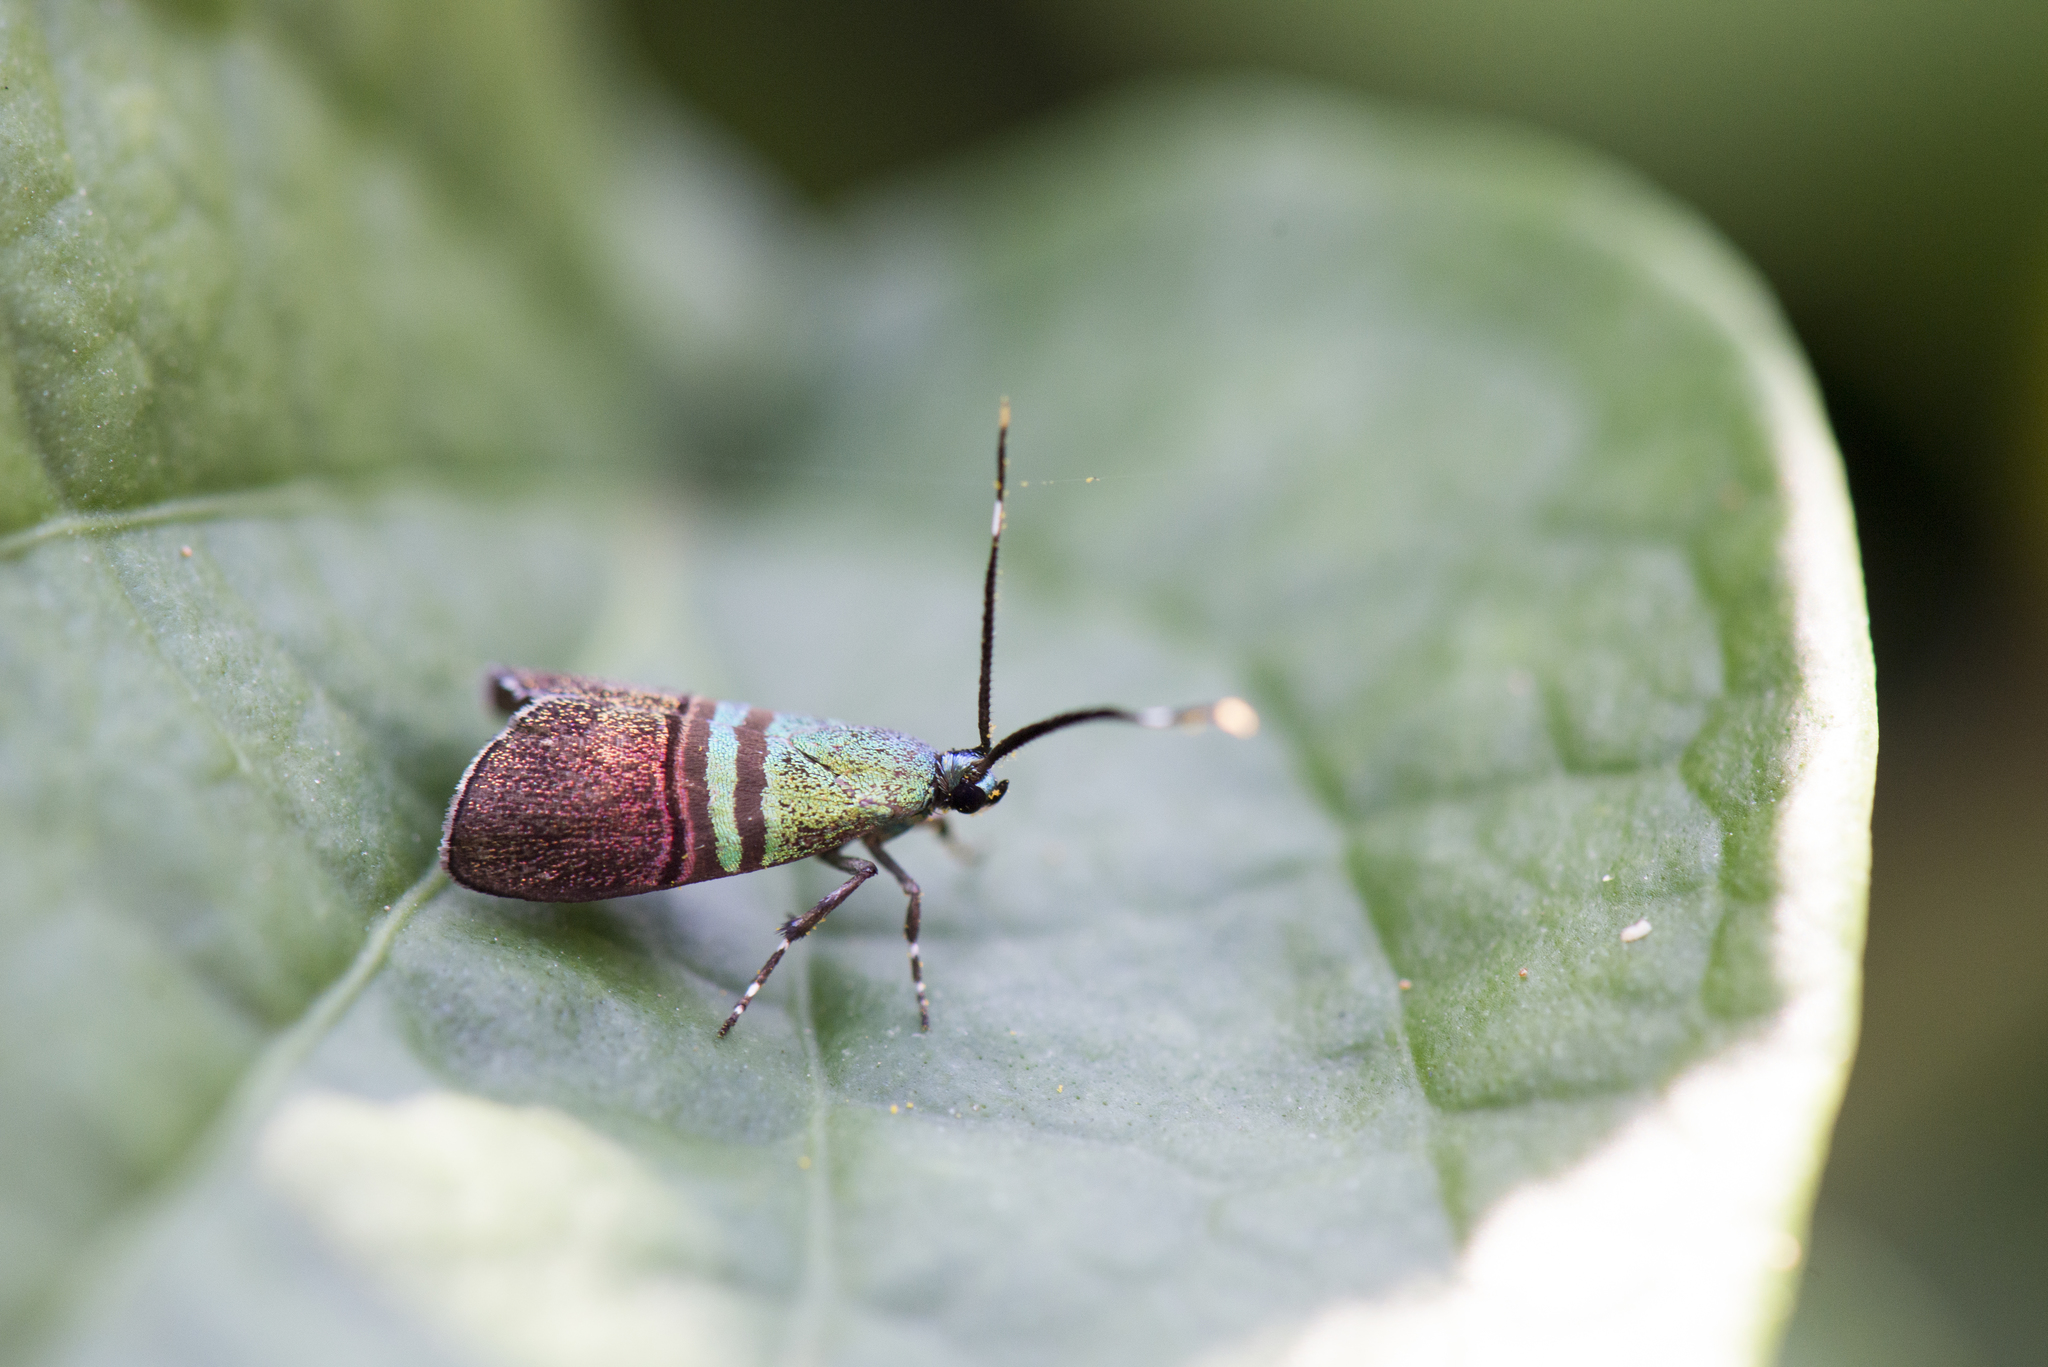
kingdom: Animalia
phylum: Arthropoda
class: Insecta
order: Lepidoptera
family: Choreutidae
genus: Saptha
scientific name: Saptha pretiosa
